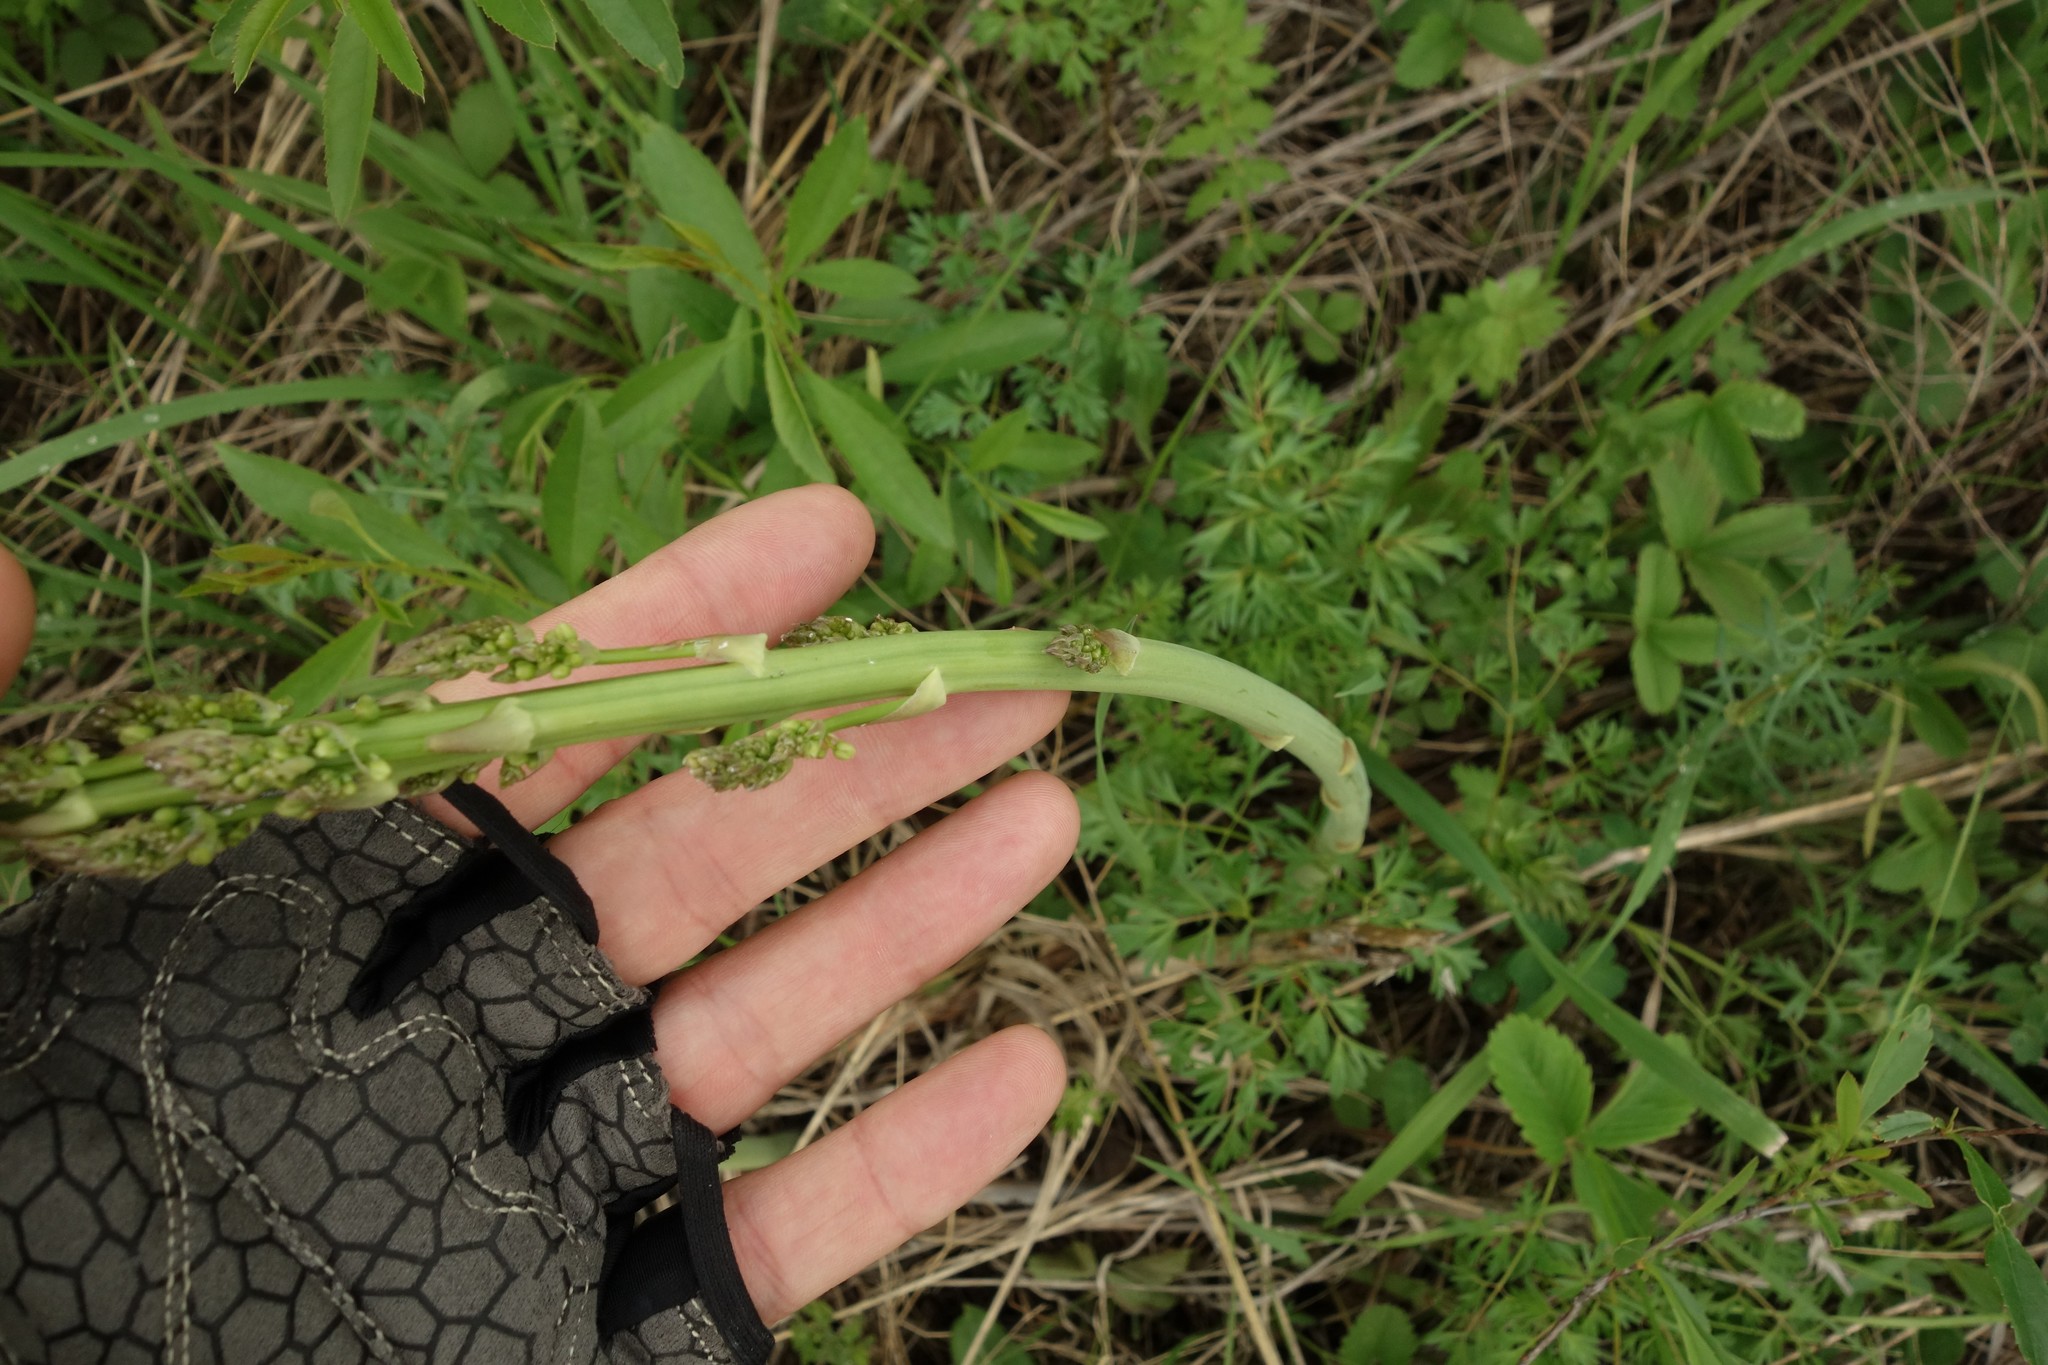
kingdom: Plantae
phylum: Tracheophyta
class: Liliopsida
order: Asparagales
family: Asparagaceae
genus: Asparagus
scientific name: Asparagus officinalis
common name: Garden asparagus
